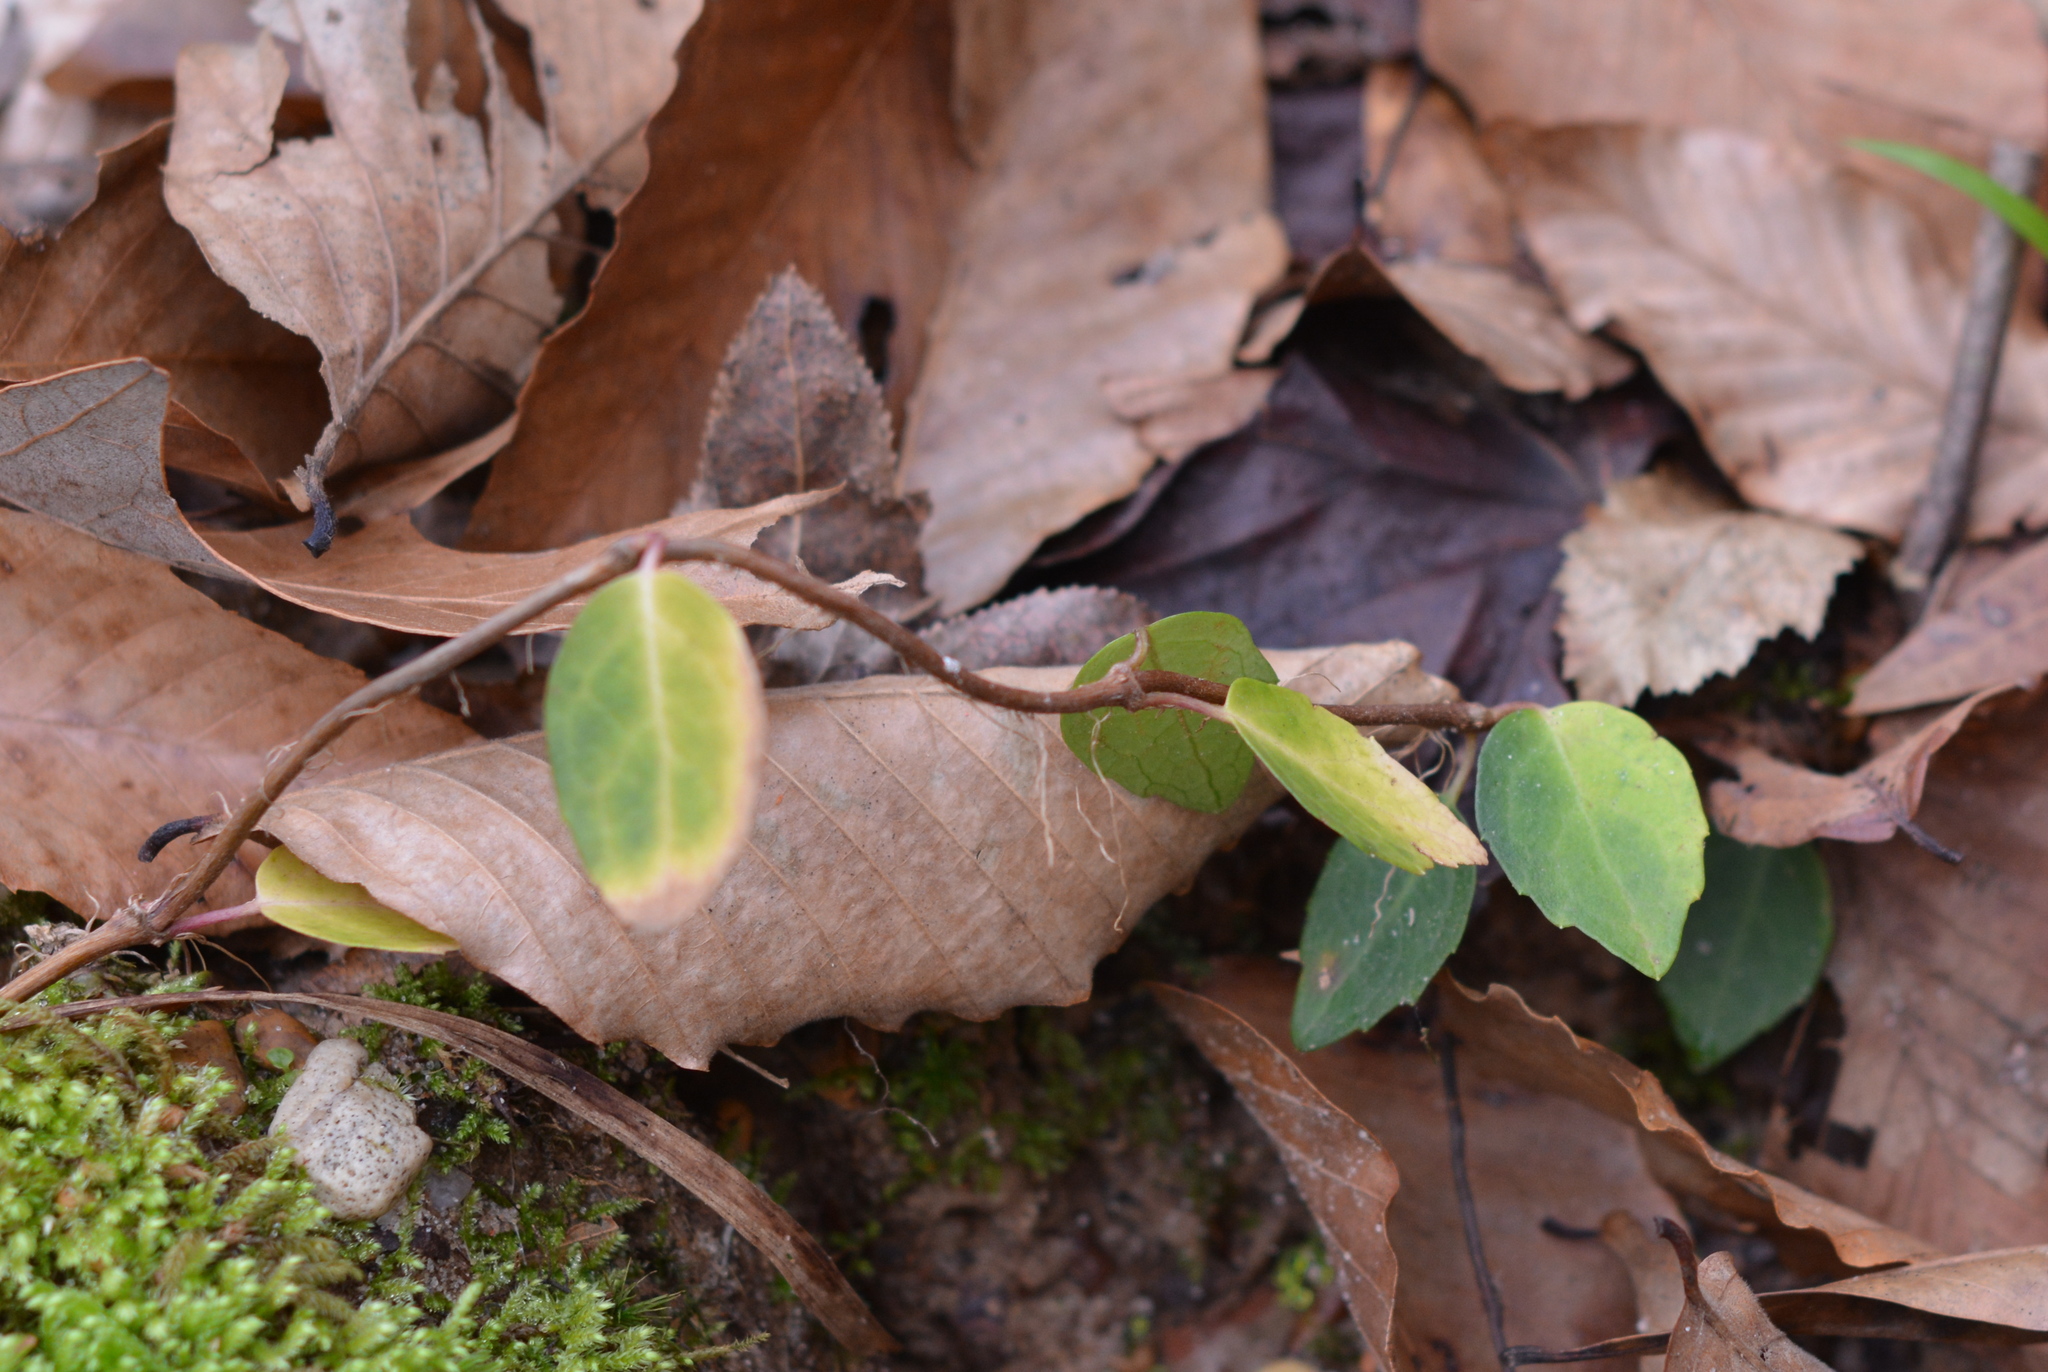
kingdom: Plantae
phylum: Tracheophyta
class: Magnoliopsida
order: Cornales
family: Hydrangeaceae
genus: Hydrangea
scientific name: Hydrangea barbara
